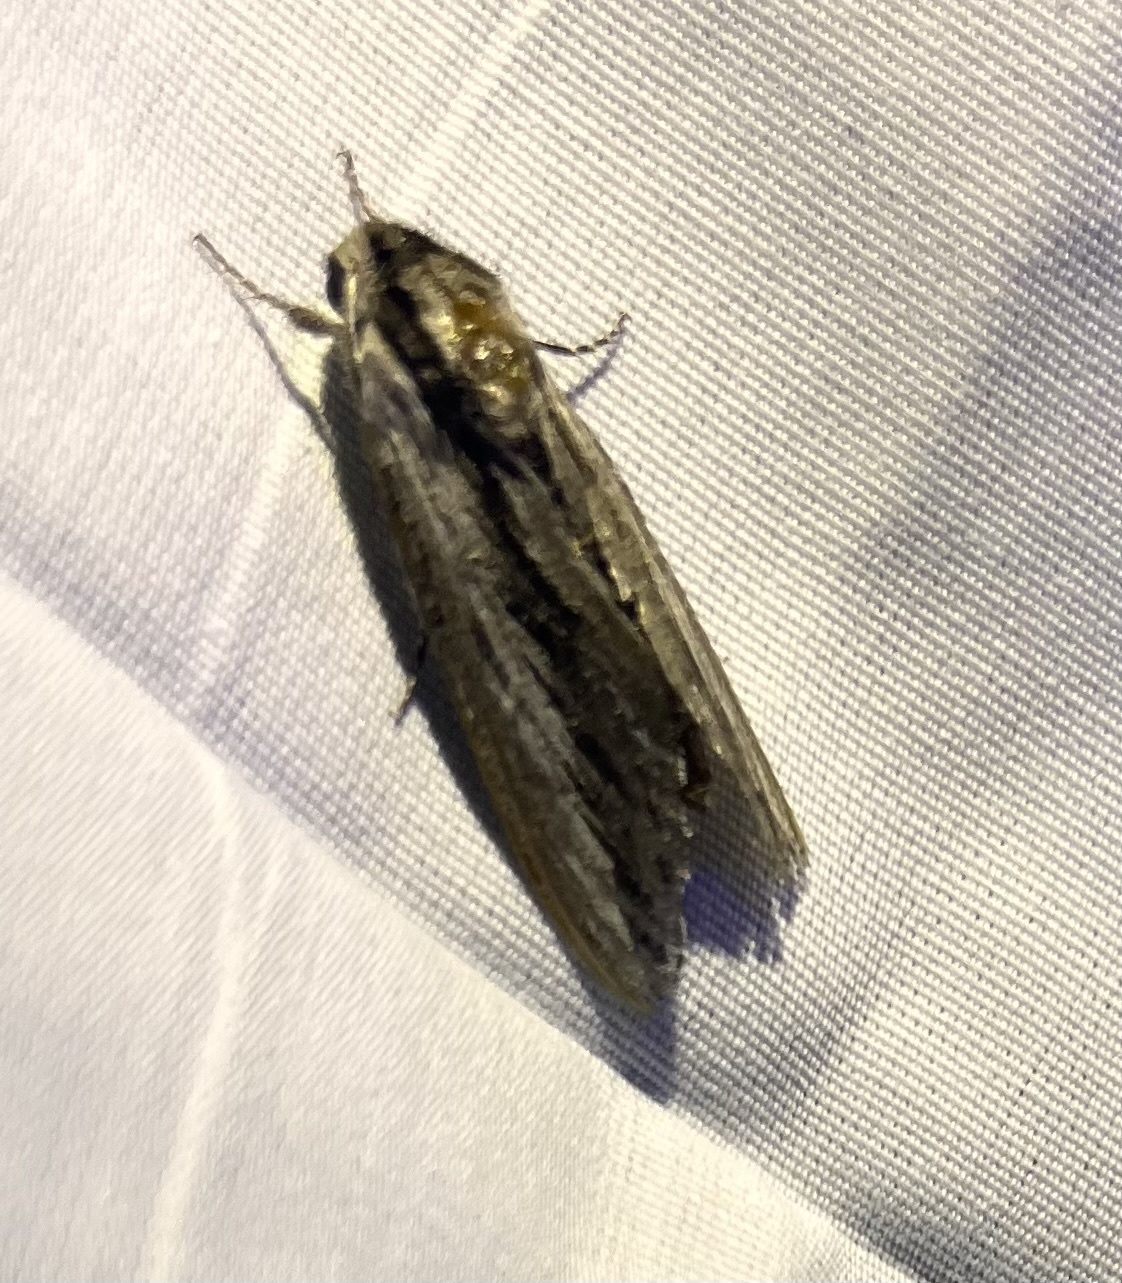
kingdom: Animalia
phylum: Arthropoda
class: Insecta
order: Lepidoptera
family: Sphingidae
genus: Sphinx
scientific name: Sphinx vanbuskirki
